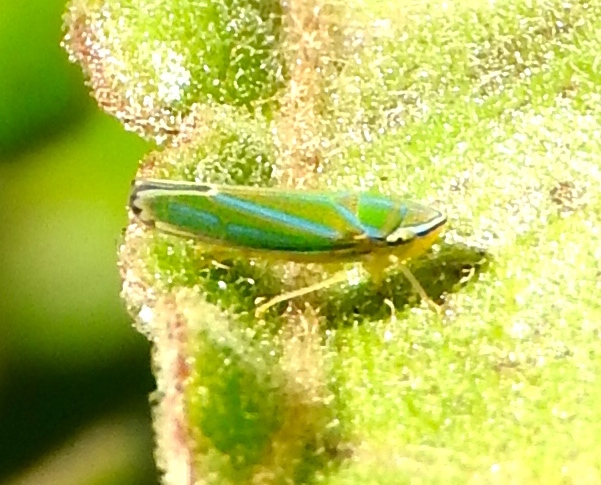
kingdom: Animalia
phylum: Arthropoda
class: Insecta
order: Hemiptera
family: Cicadellidae
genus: Graphocephala
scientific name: Graphocephala apicata
